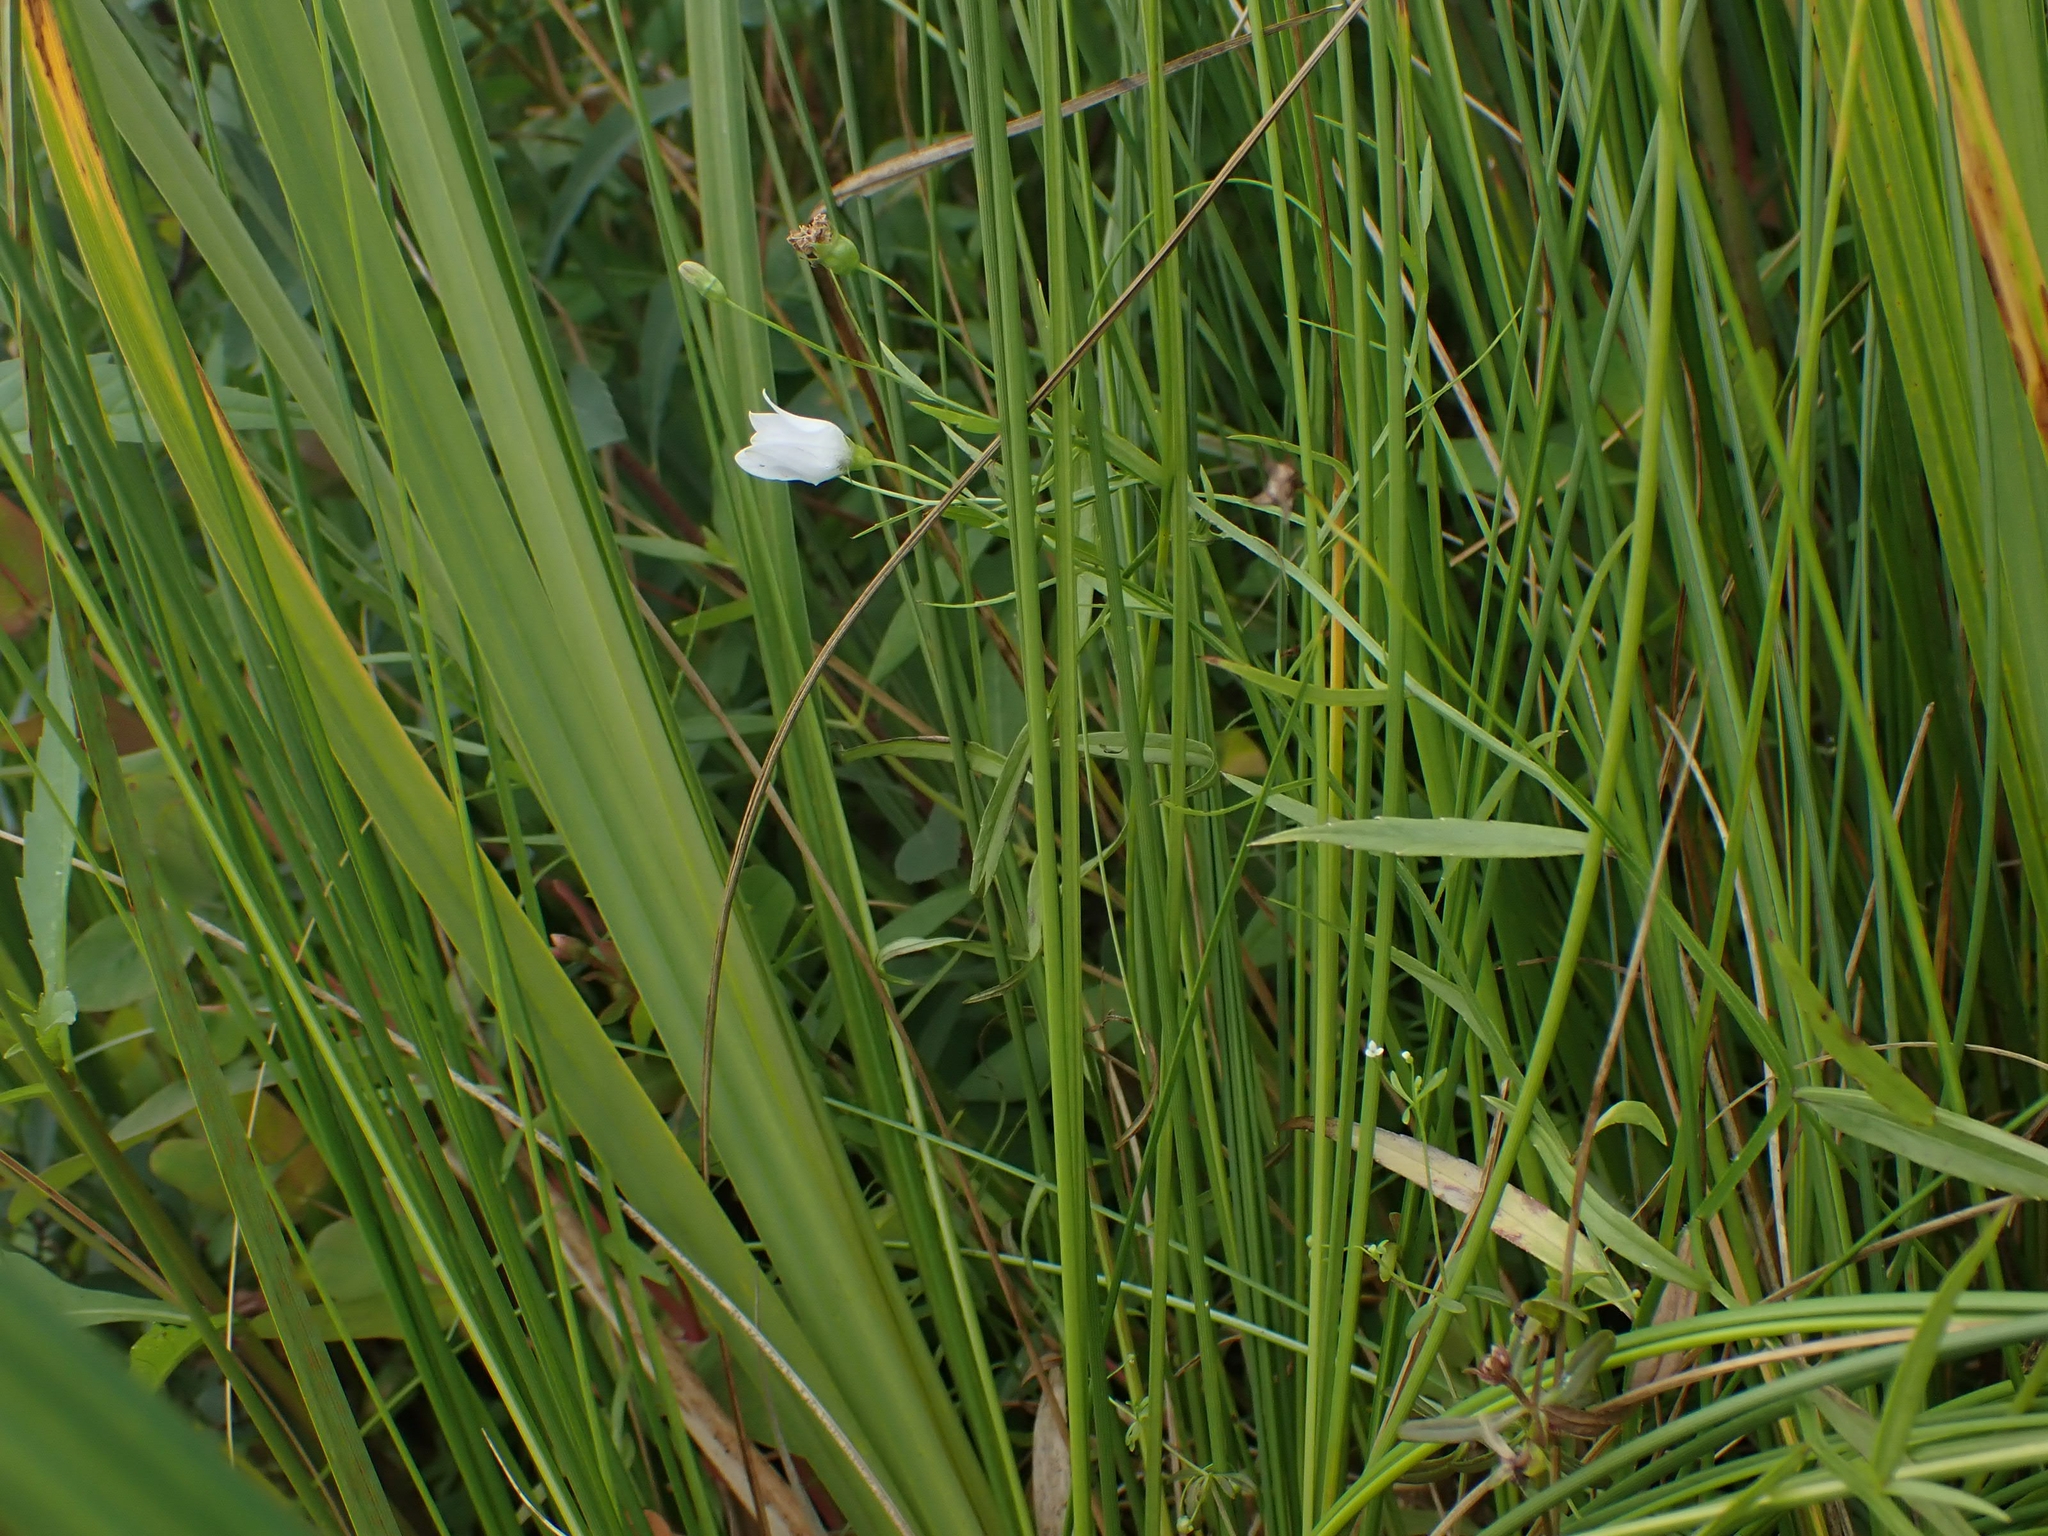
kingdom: Plantae
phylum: Tracheophyta
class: Magnoliopsida
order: Asterales
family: Campanulaceae
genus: Palustricodon
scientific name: Palustricodon aparinoides
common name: Bedstraw bellflower
